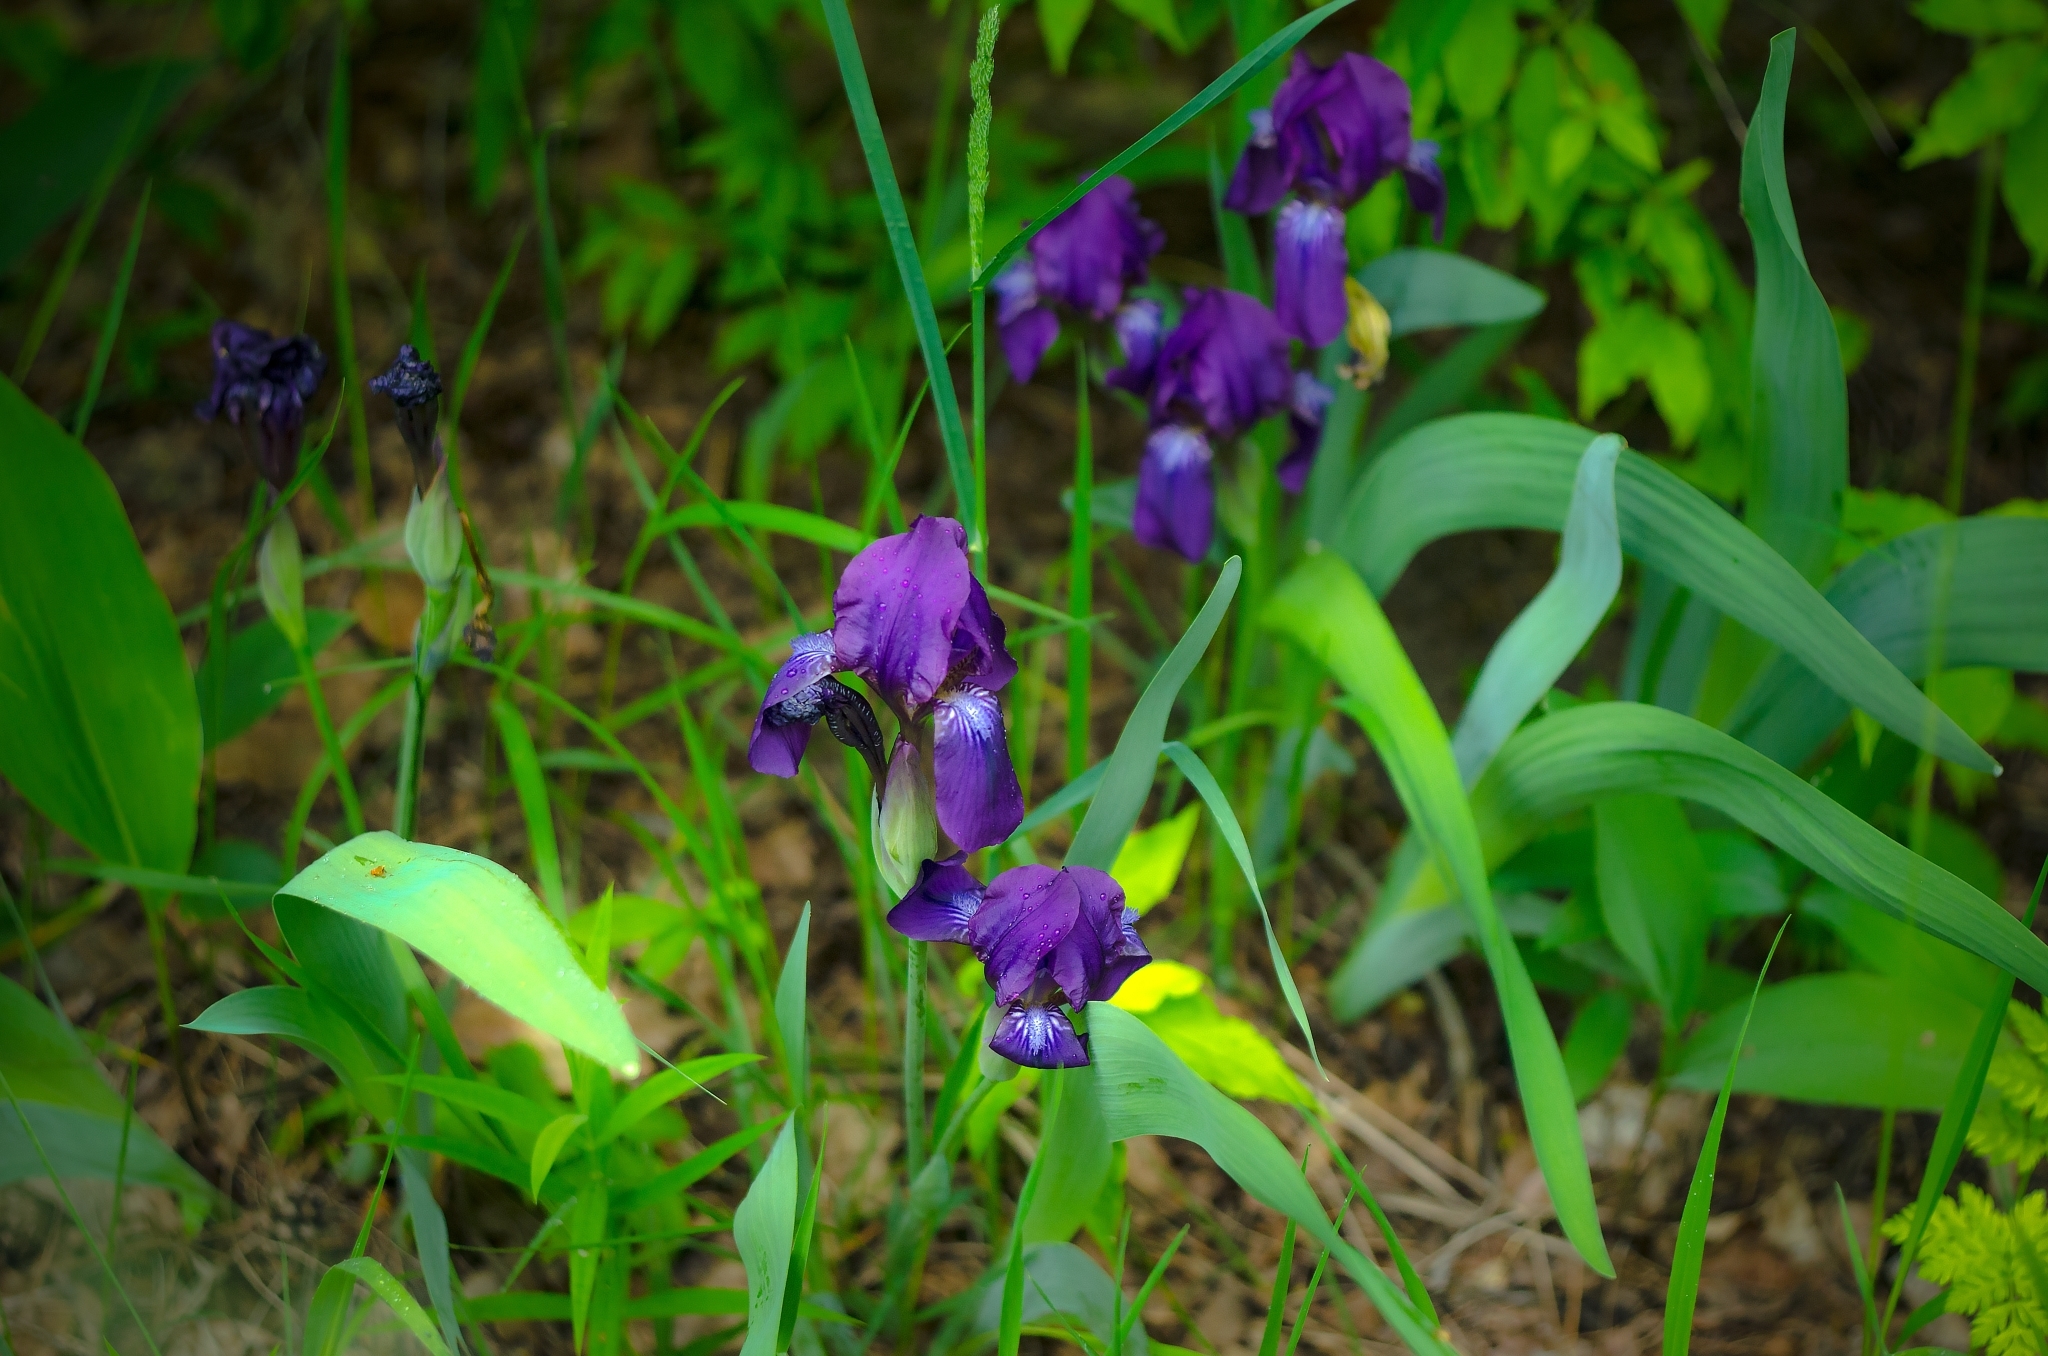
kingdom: Plantae
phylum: Tracheophyta
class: Liliopsida
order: Asparagales
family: Iridaceae
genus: Iris
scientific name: Iris aphylla
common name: Stool iris
